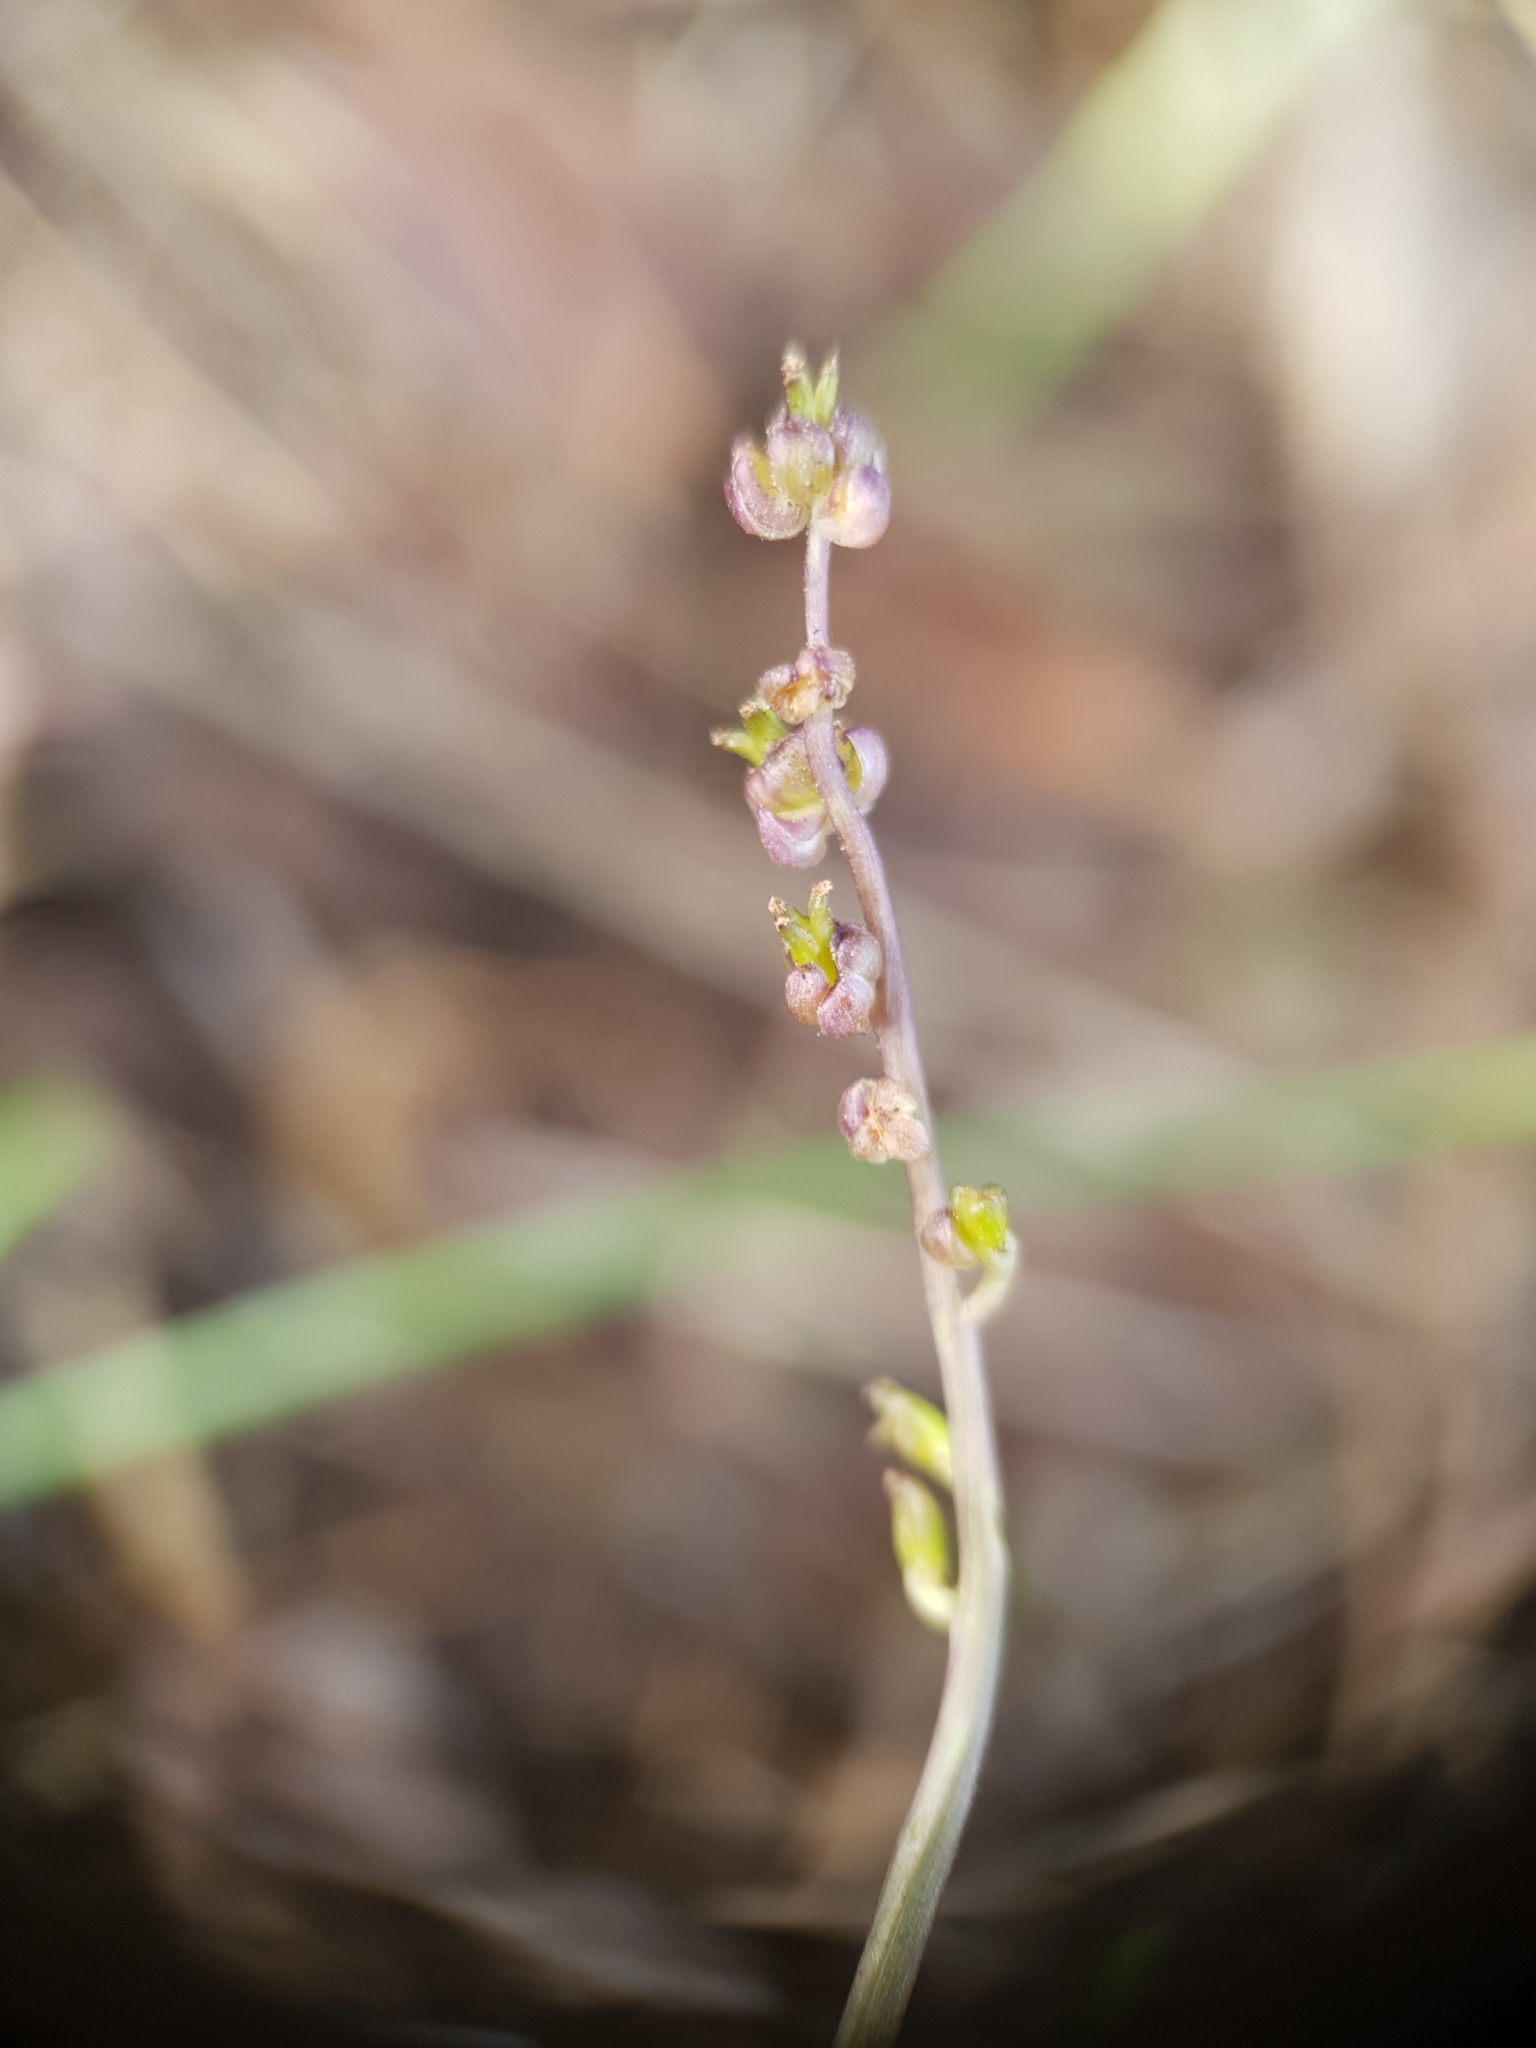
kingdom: Plantae
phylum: Tracheophyta
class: Liliopsida
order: Alismatales
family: Juncaginaceae
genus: Triglochin
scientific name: Triglochin laxiflora
